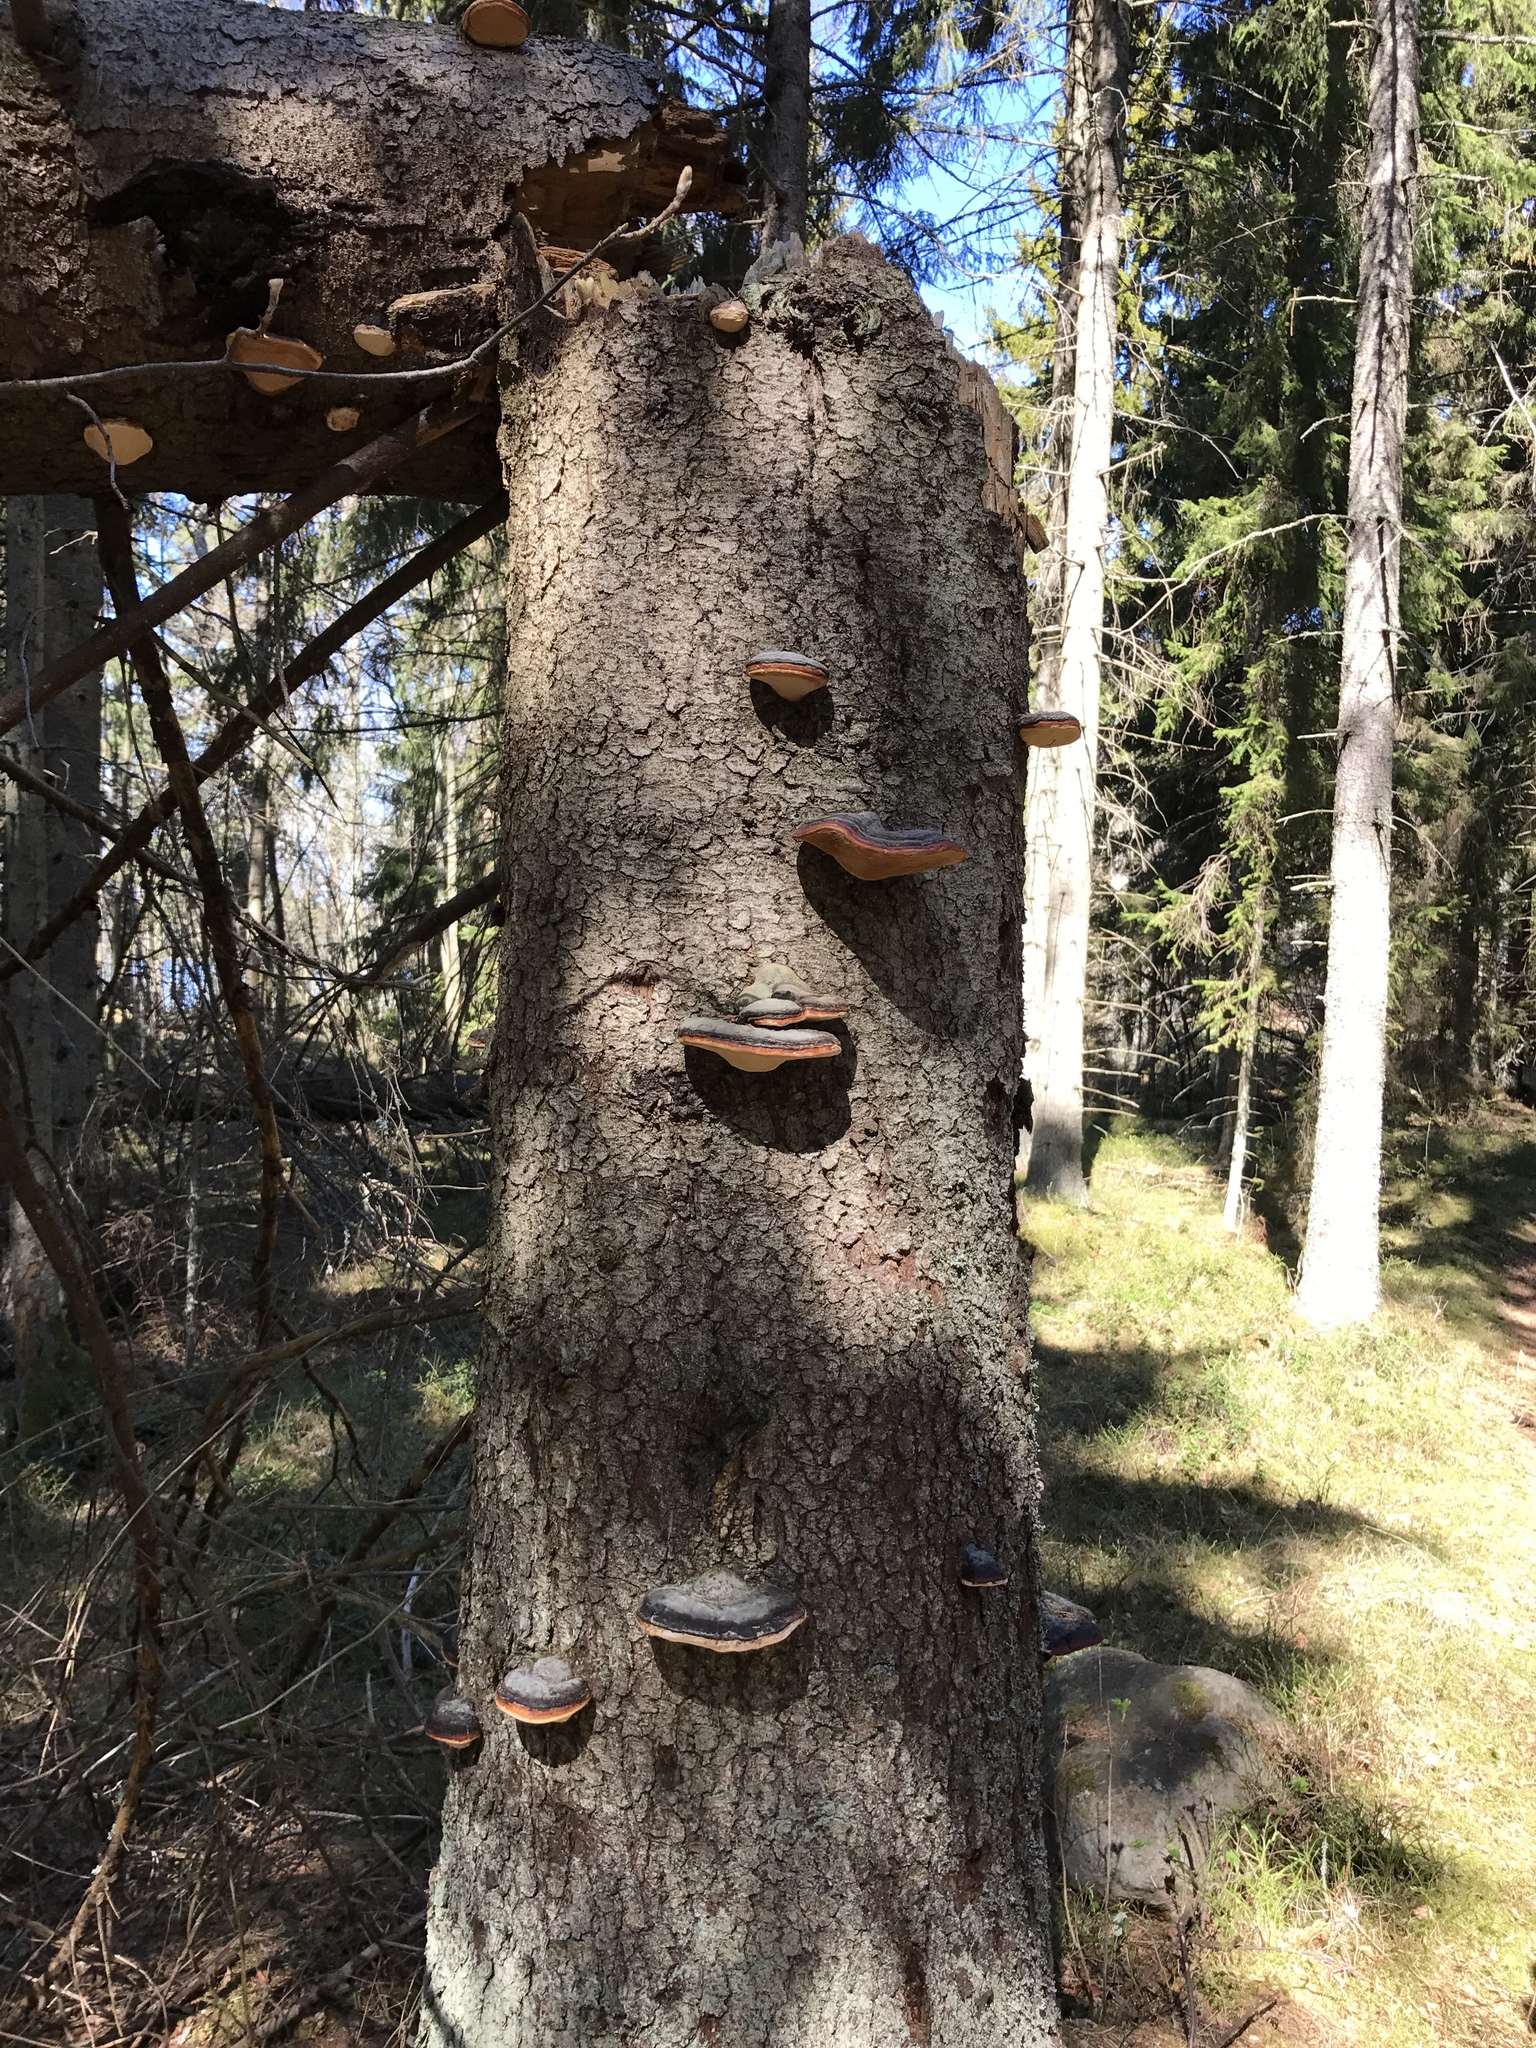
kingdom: Fungi
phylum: Basidiomycota
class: Agaricomycetes
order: Polyporales
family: Fomitopsidaceae
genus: Fomitopsis
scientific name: Fomitopsis pinicola
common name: Red-belted bracket
